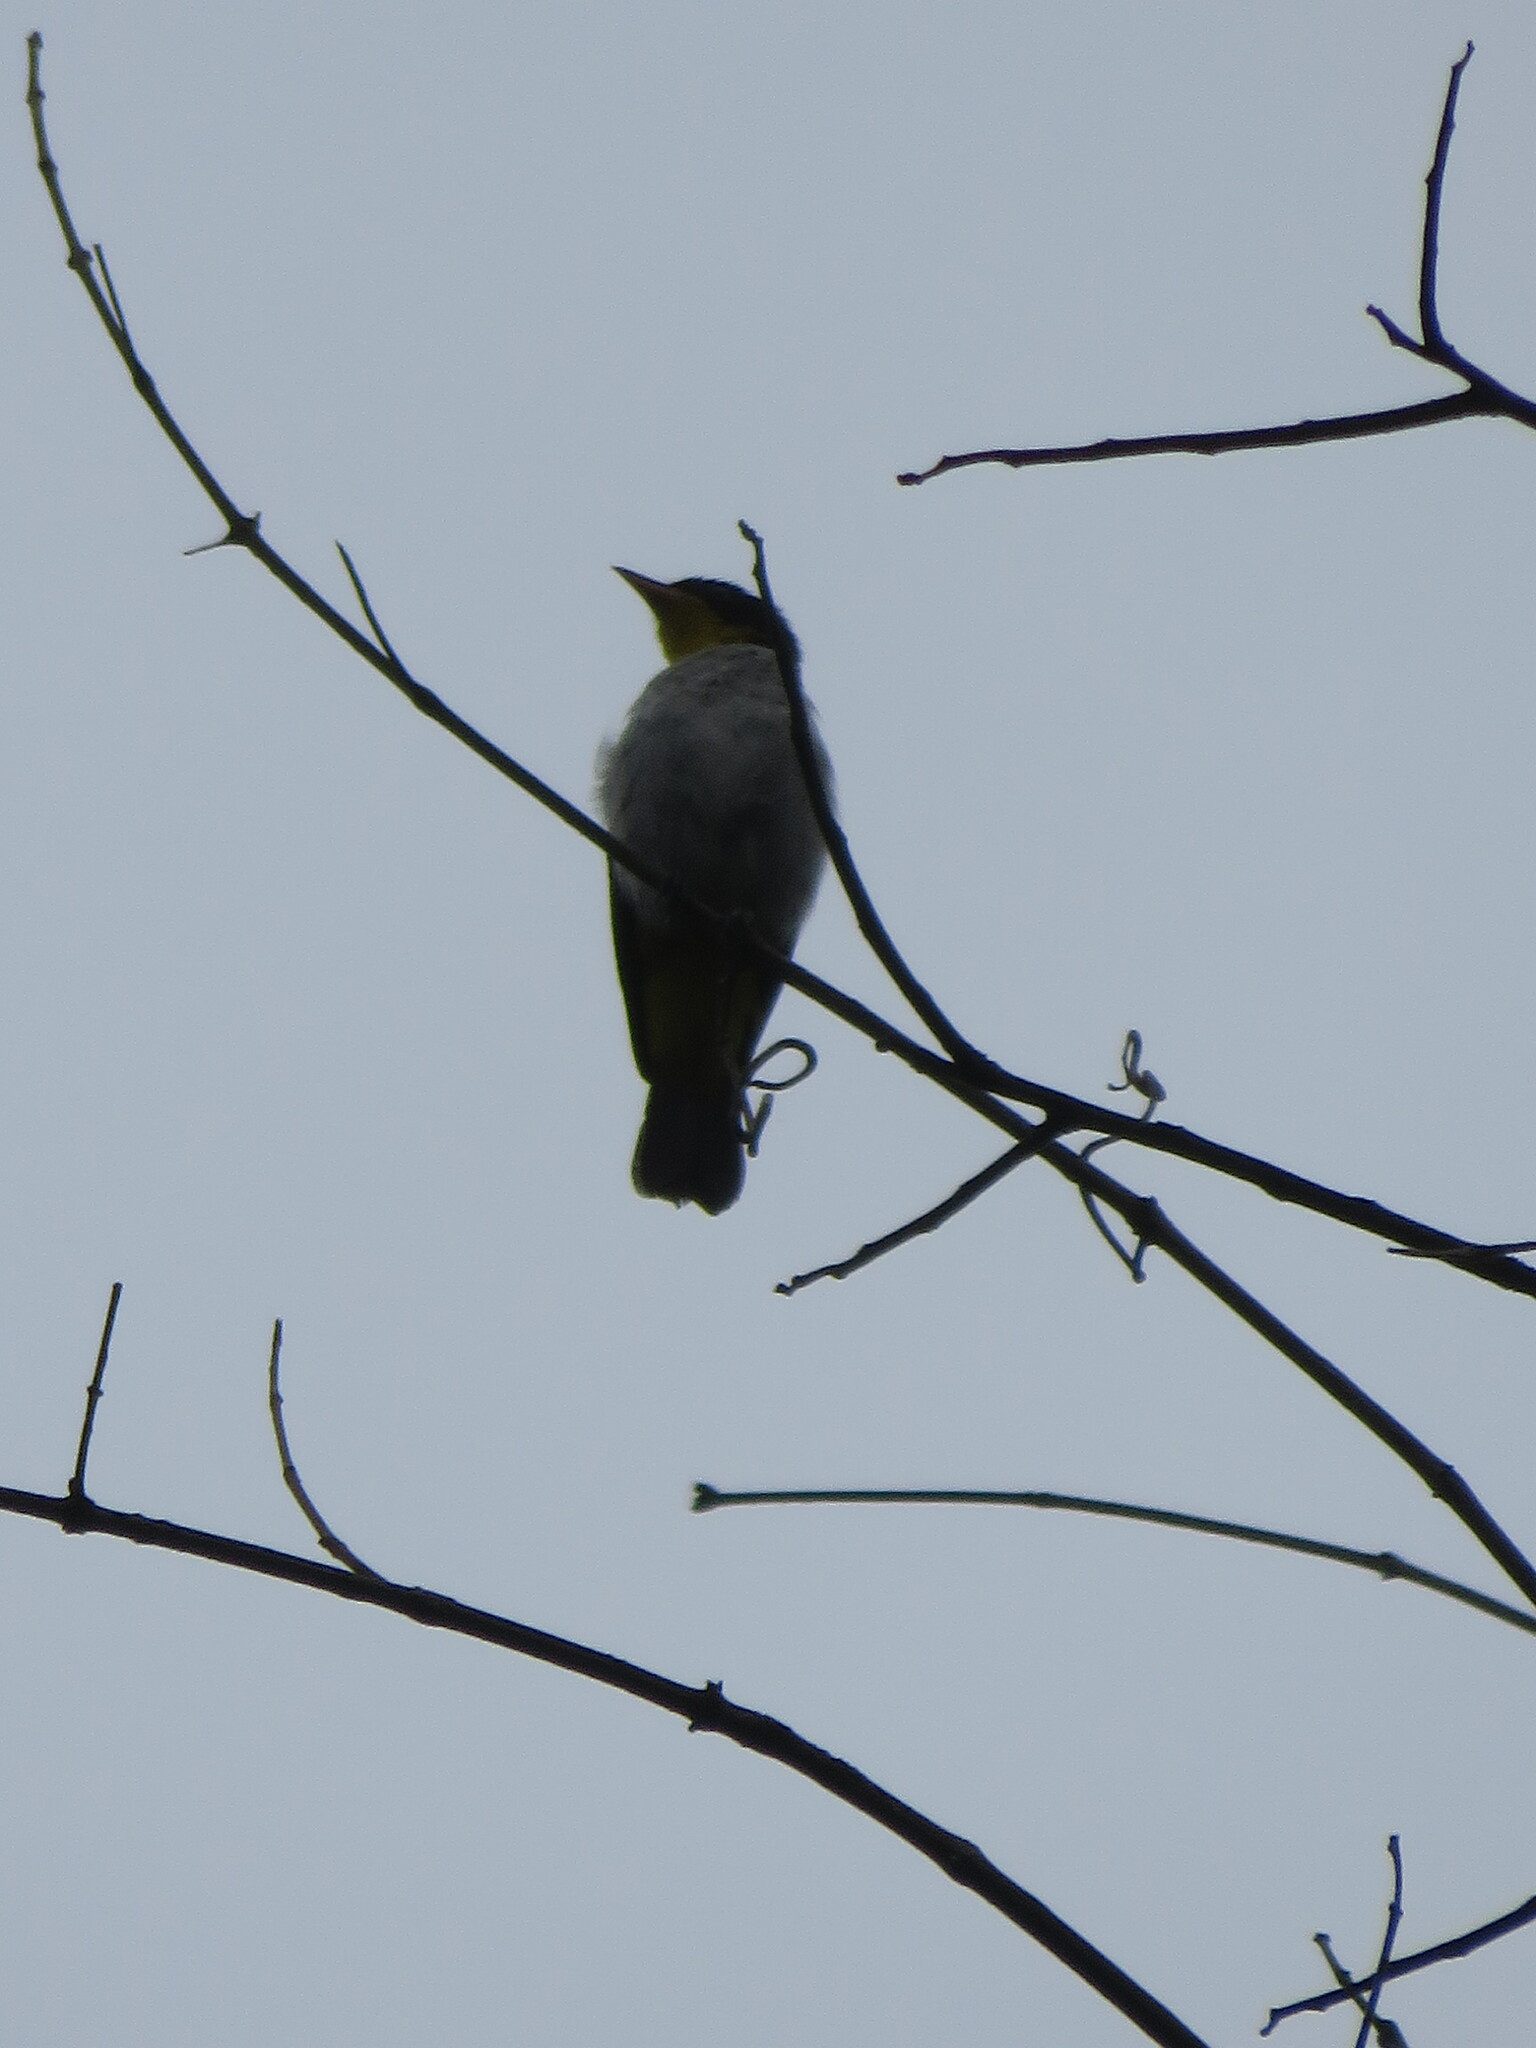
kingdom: Animalia
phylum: Chordata
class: Aves
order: Passeriformes
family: Thraupidae
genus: Hemithraupis
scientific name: Hemithraupis flavicollis
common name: Yellow-backed tanager
